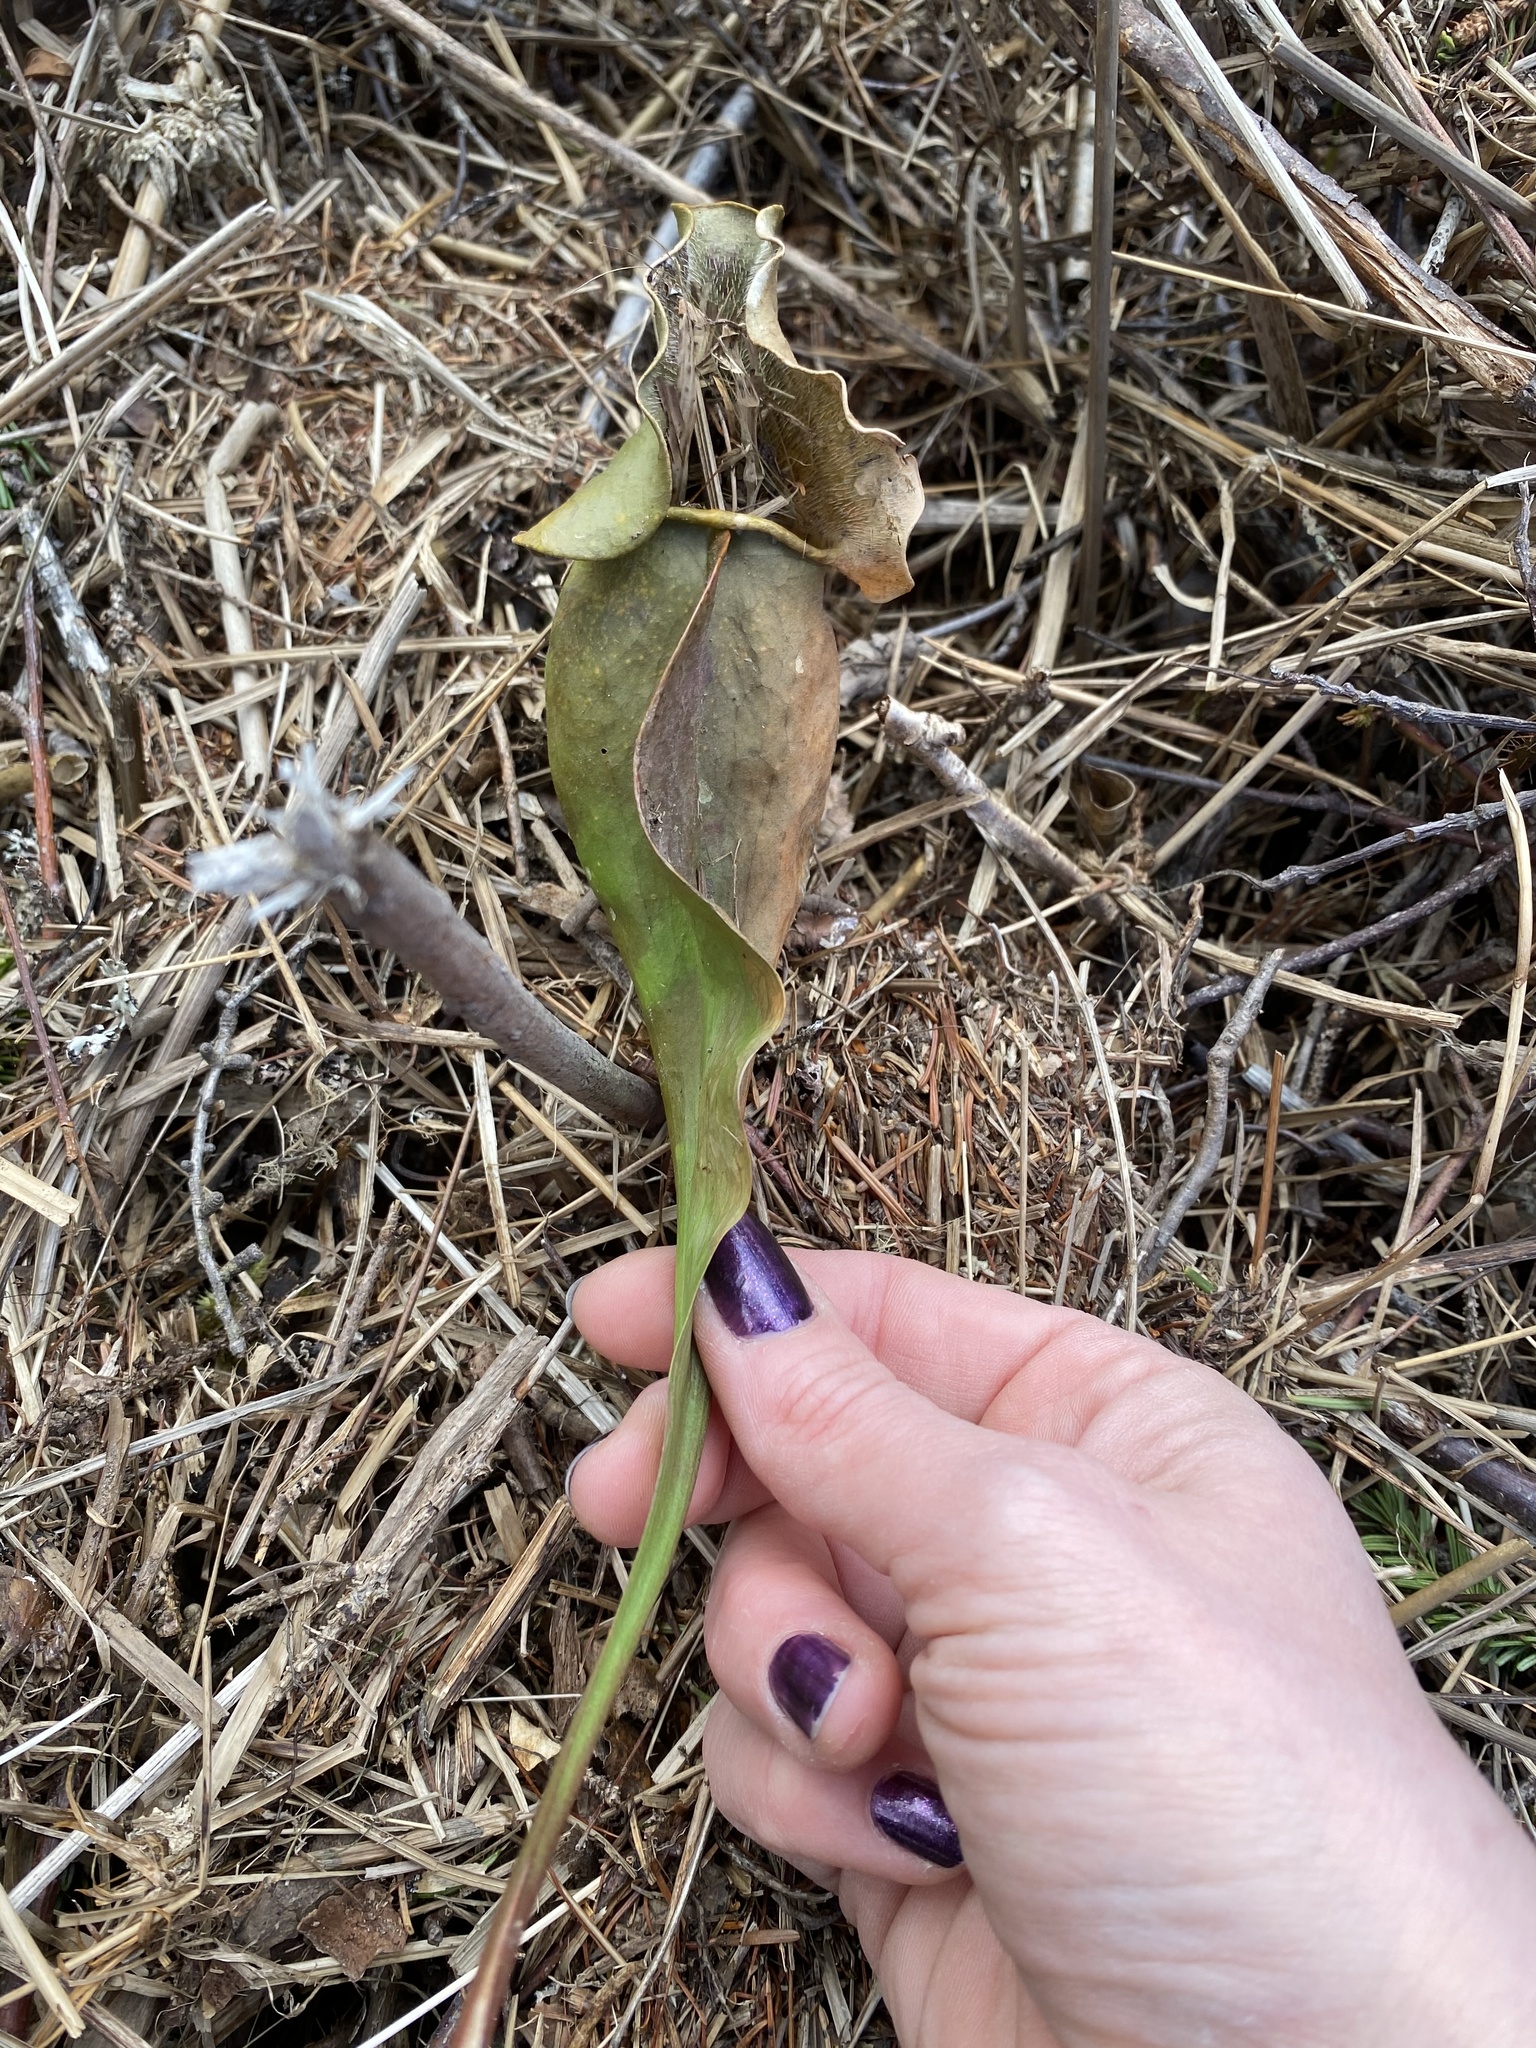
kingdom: Plantae
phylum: Tracheophyta
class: Magnoliopsida
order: Ericales
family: Sarraceniaceae
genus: Sarracenia
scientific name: Sarracenia purpurea
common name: Pitcherplant
